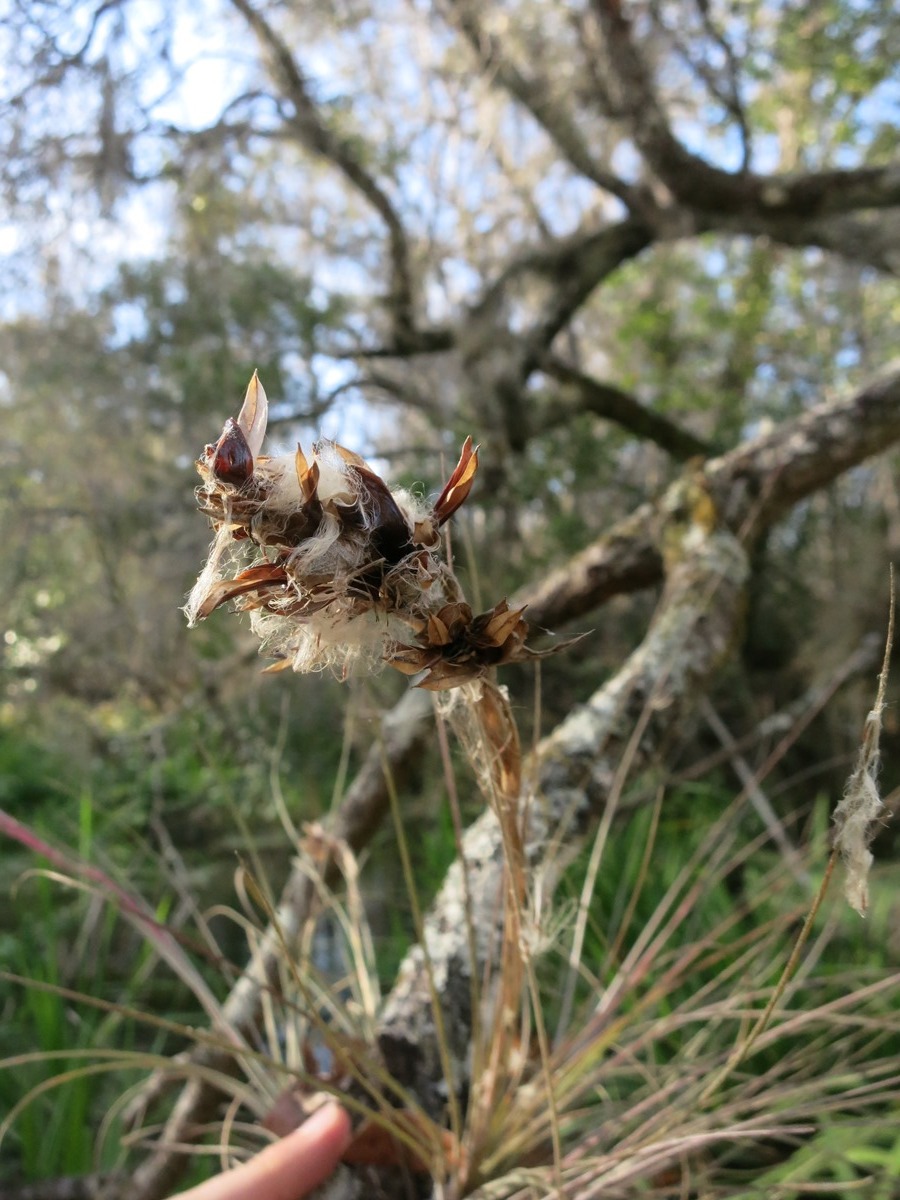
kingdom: Plantae
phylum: Tracheophyta
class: Liliopsida
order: Poales
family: Bromeliaceae
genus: Tillandsia
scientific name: Tillandsia bartramii
